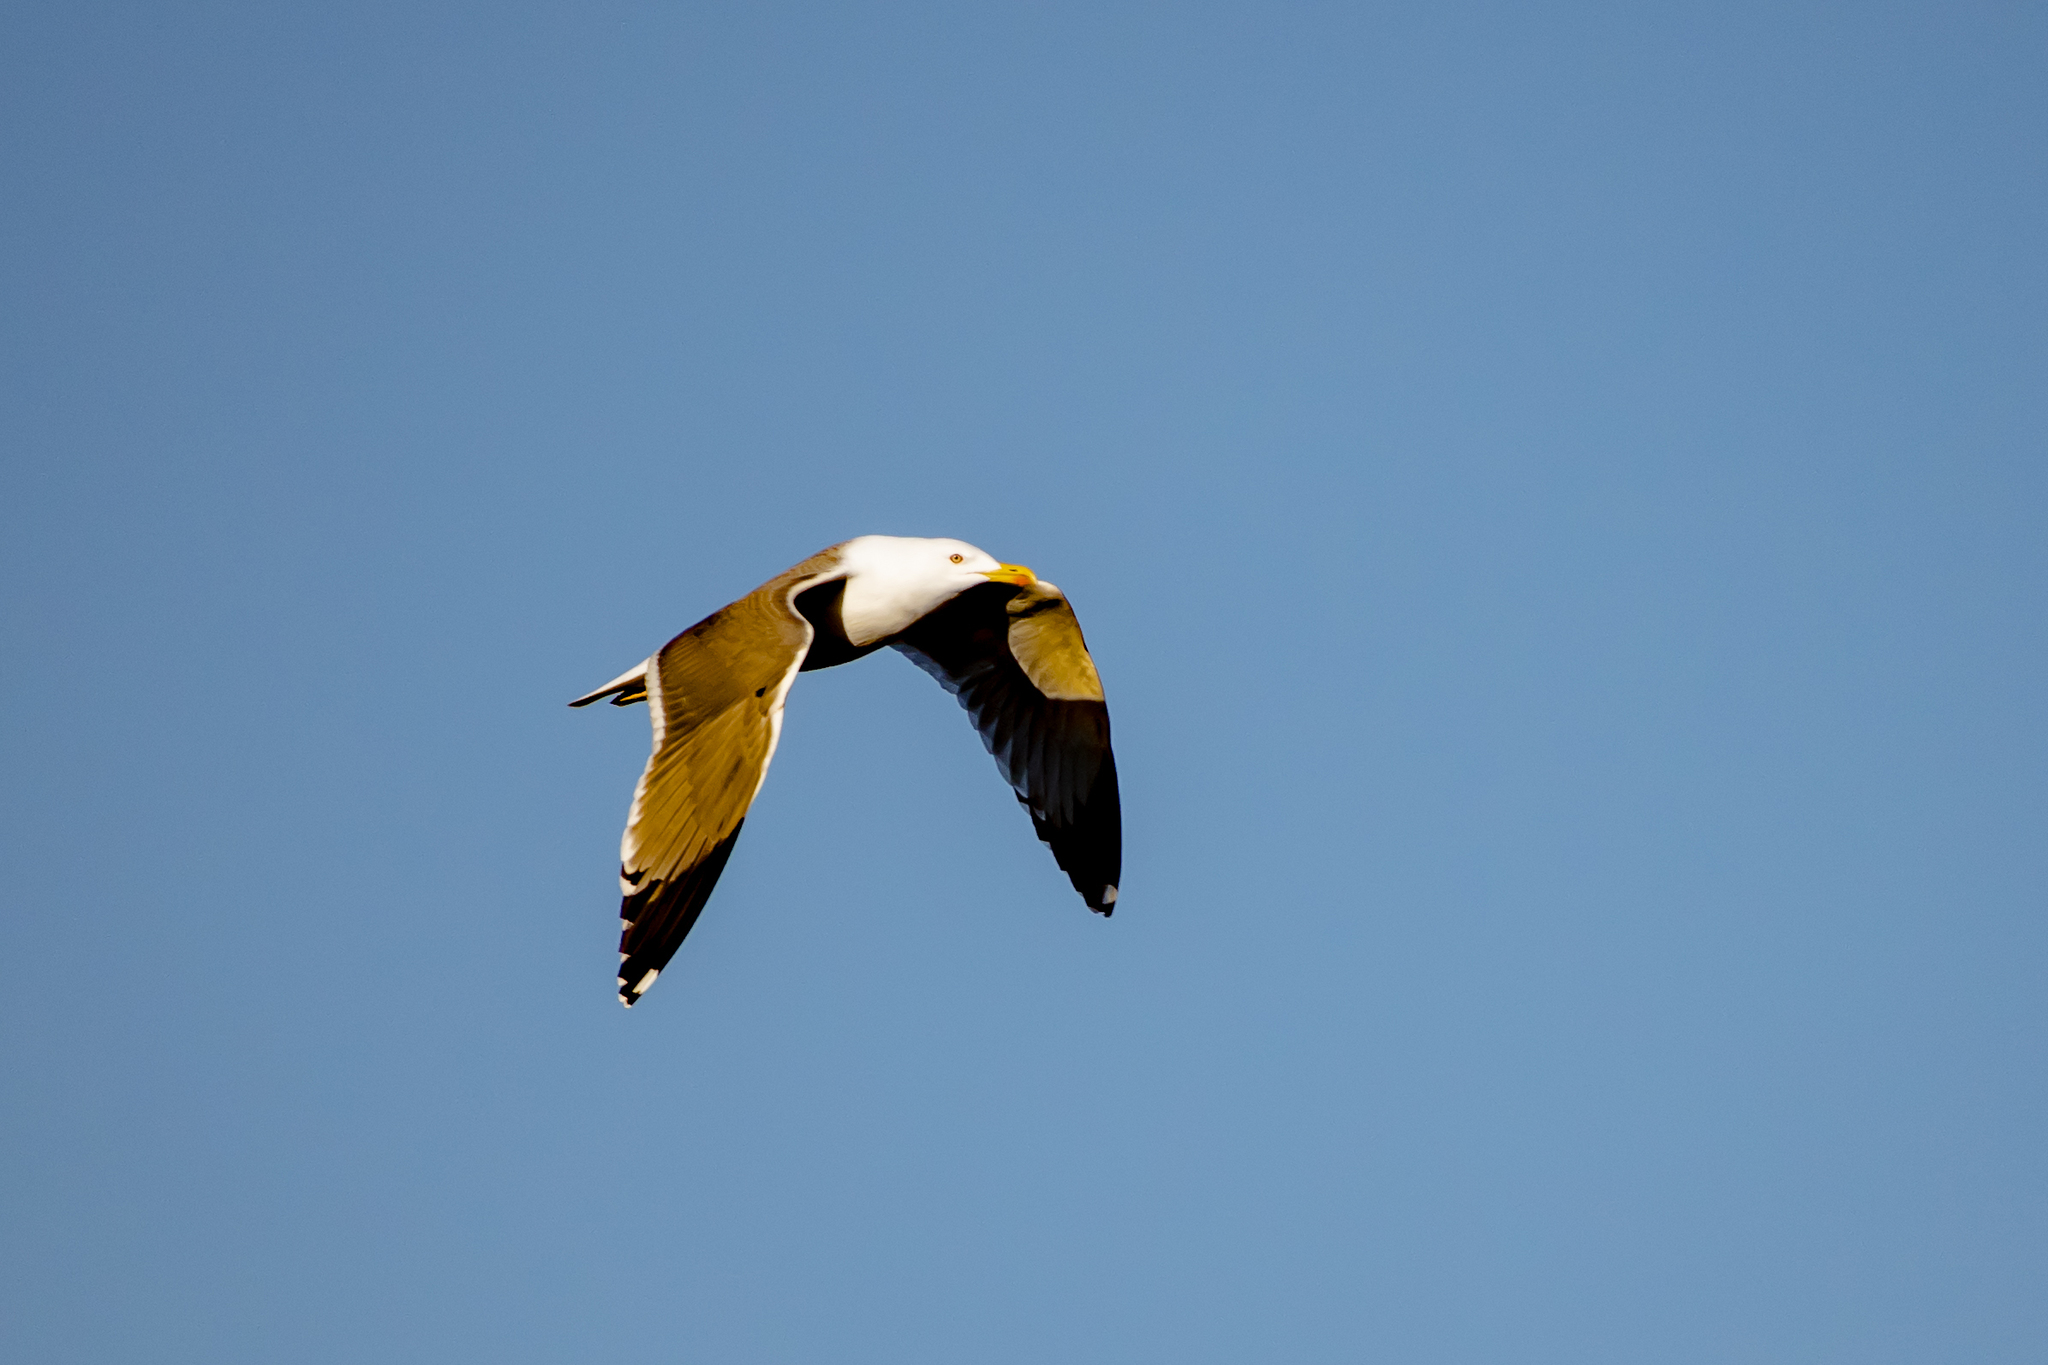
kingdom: Animalia
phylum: Chordata
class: Aves
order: Charadriiformes
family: Laridae
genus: Larus
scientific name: Larus michahellis
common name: Yellow-legged gull
